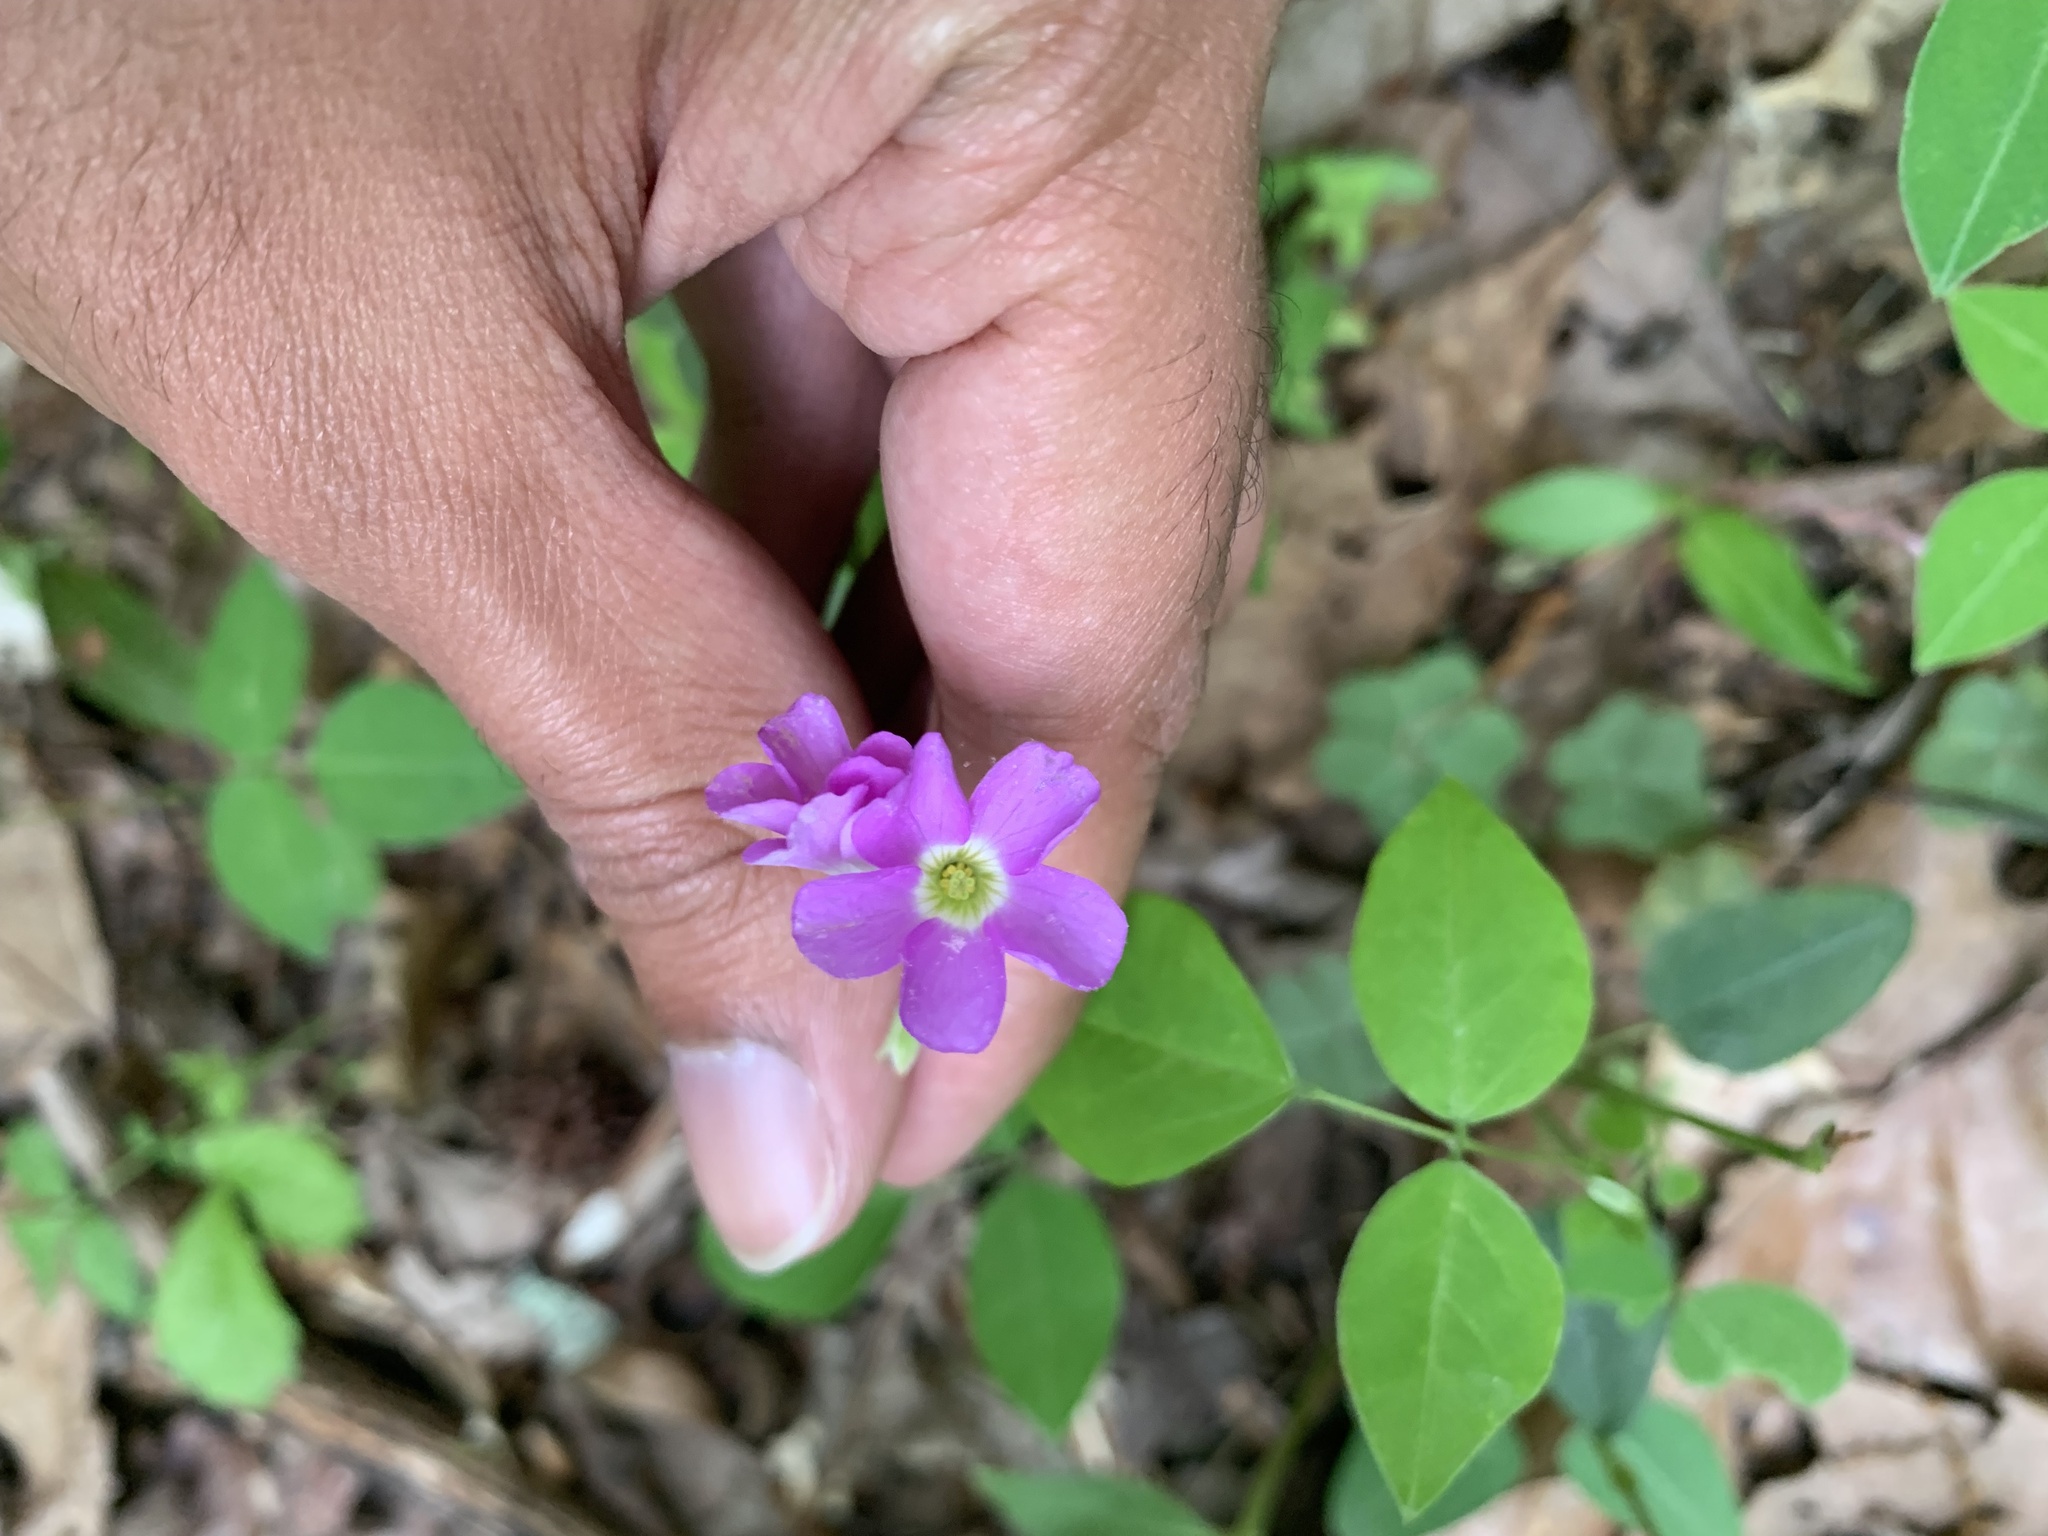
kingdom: Plantae
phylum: Tracheophyta
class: Magnoliopsida
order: Oxalidales
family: Oxalidaceae
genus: Oxalis
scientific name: Oxalis violacea
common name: Violet wood-sorrel
